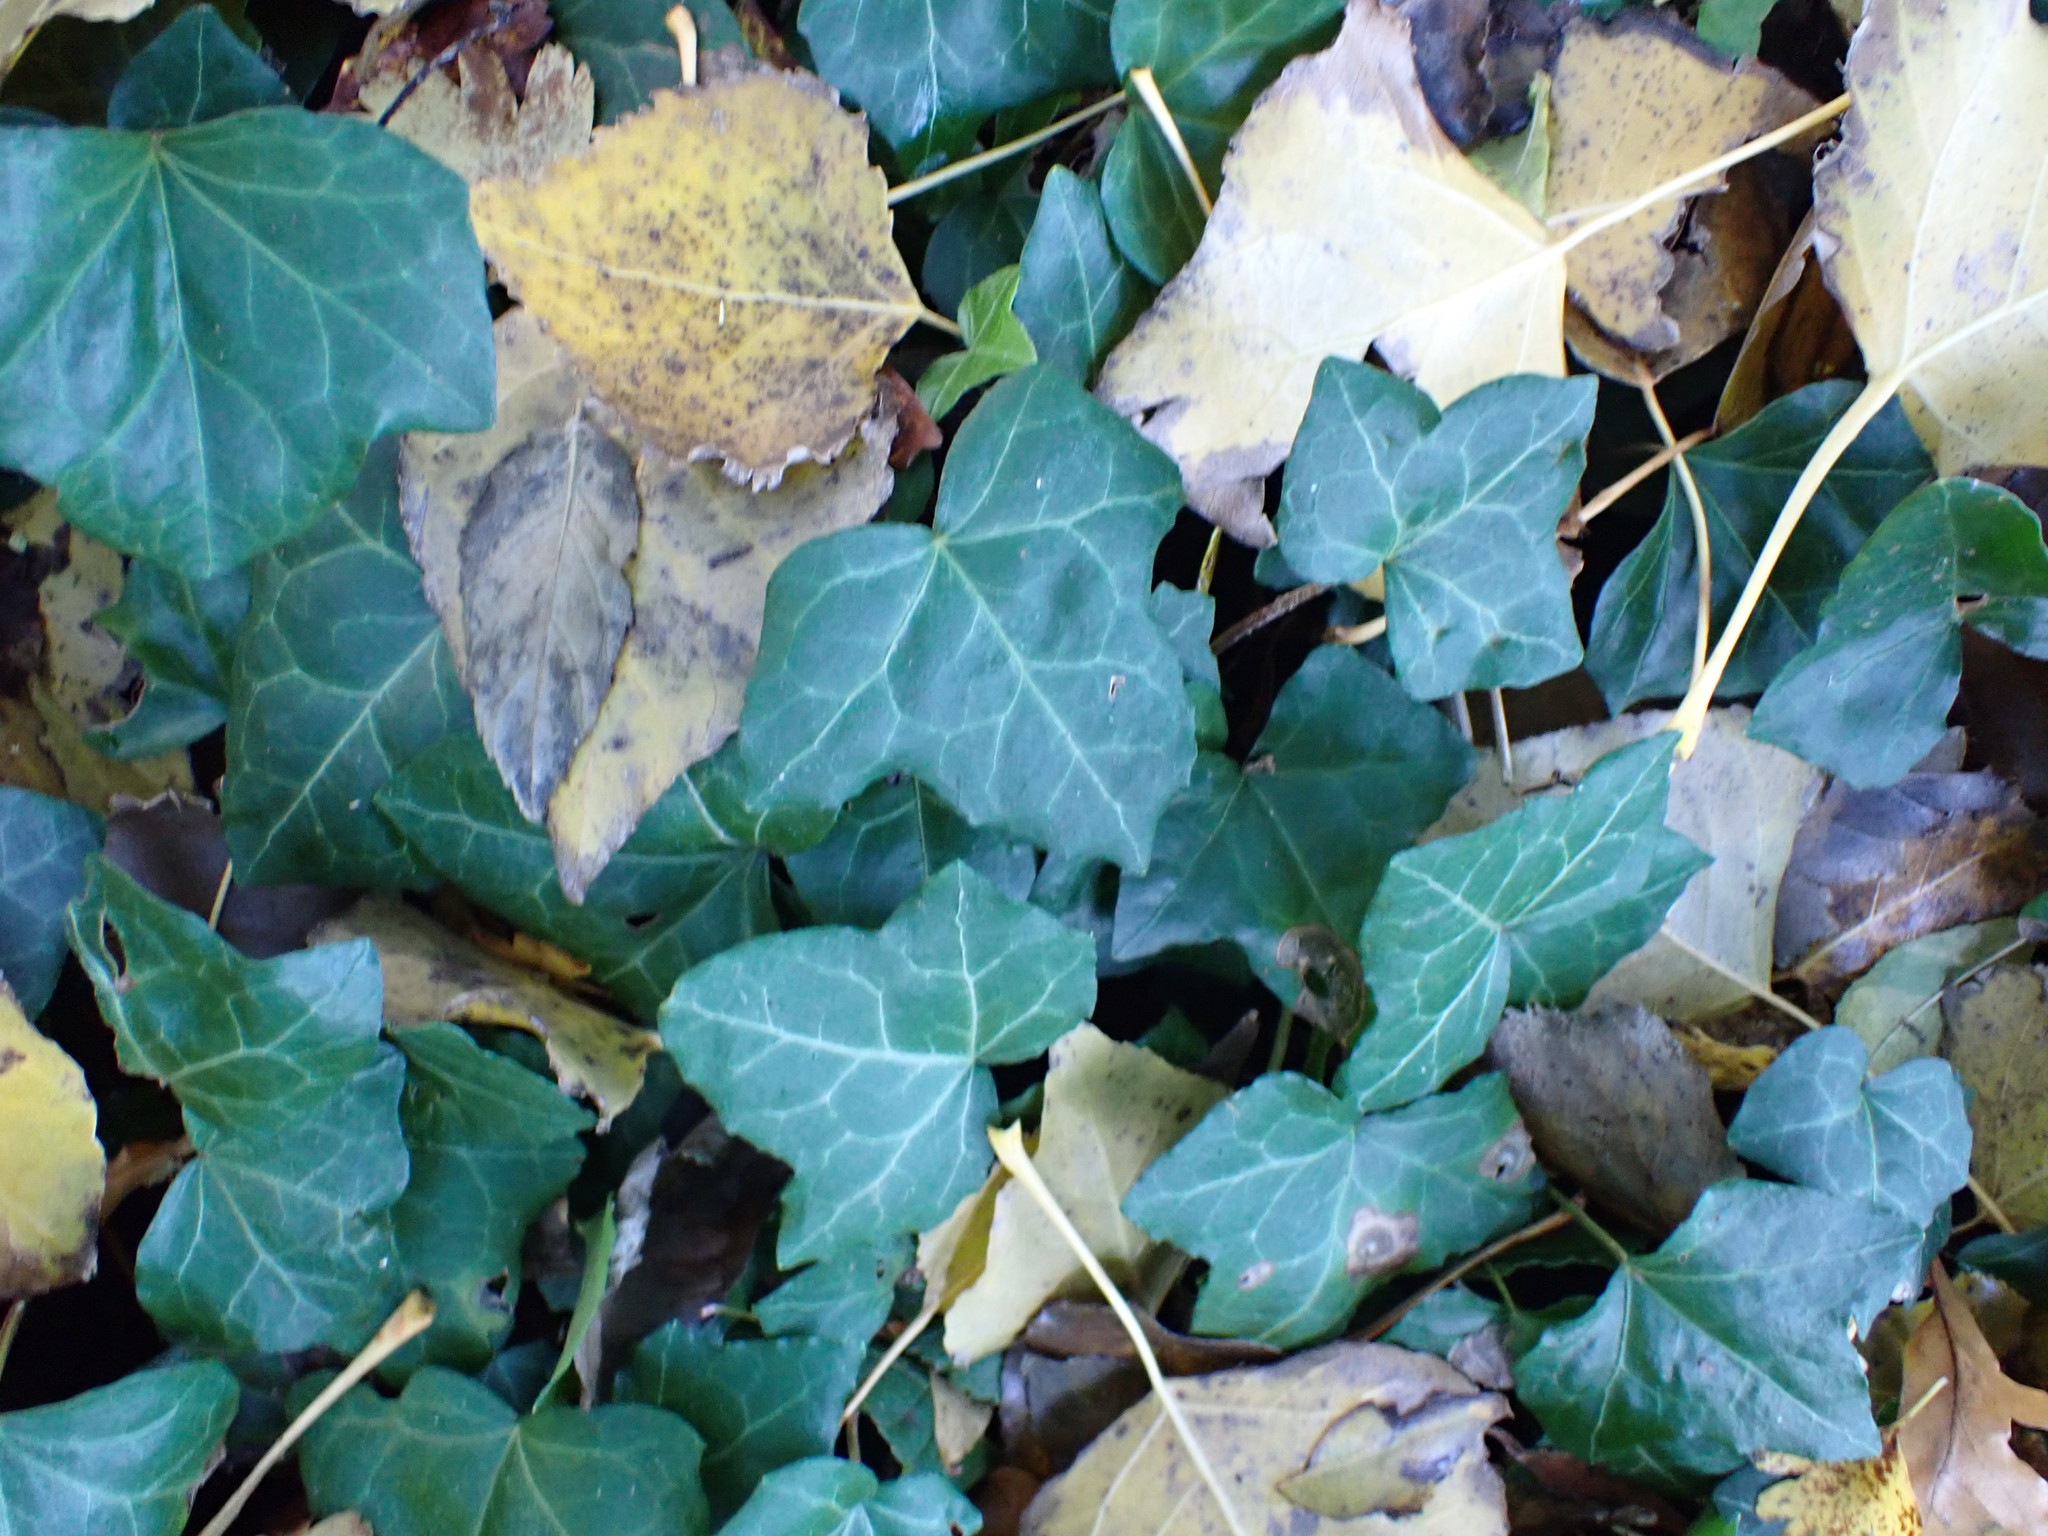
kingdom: Plantae
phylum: Tracheophyta
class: Magnoliopsida
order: Apiales
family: Araliaceae
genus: Hedera
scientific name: Hedera helix
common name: Ivy
